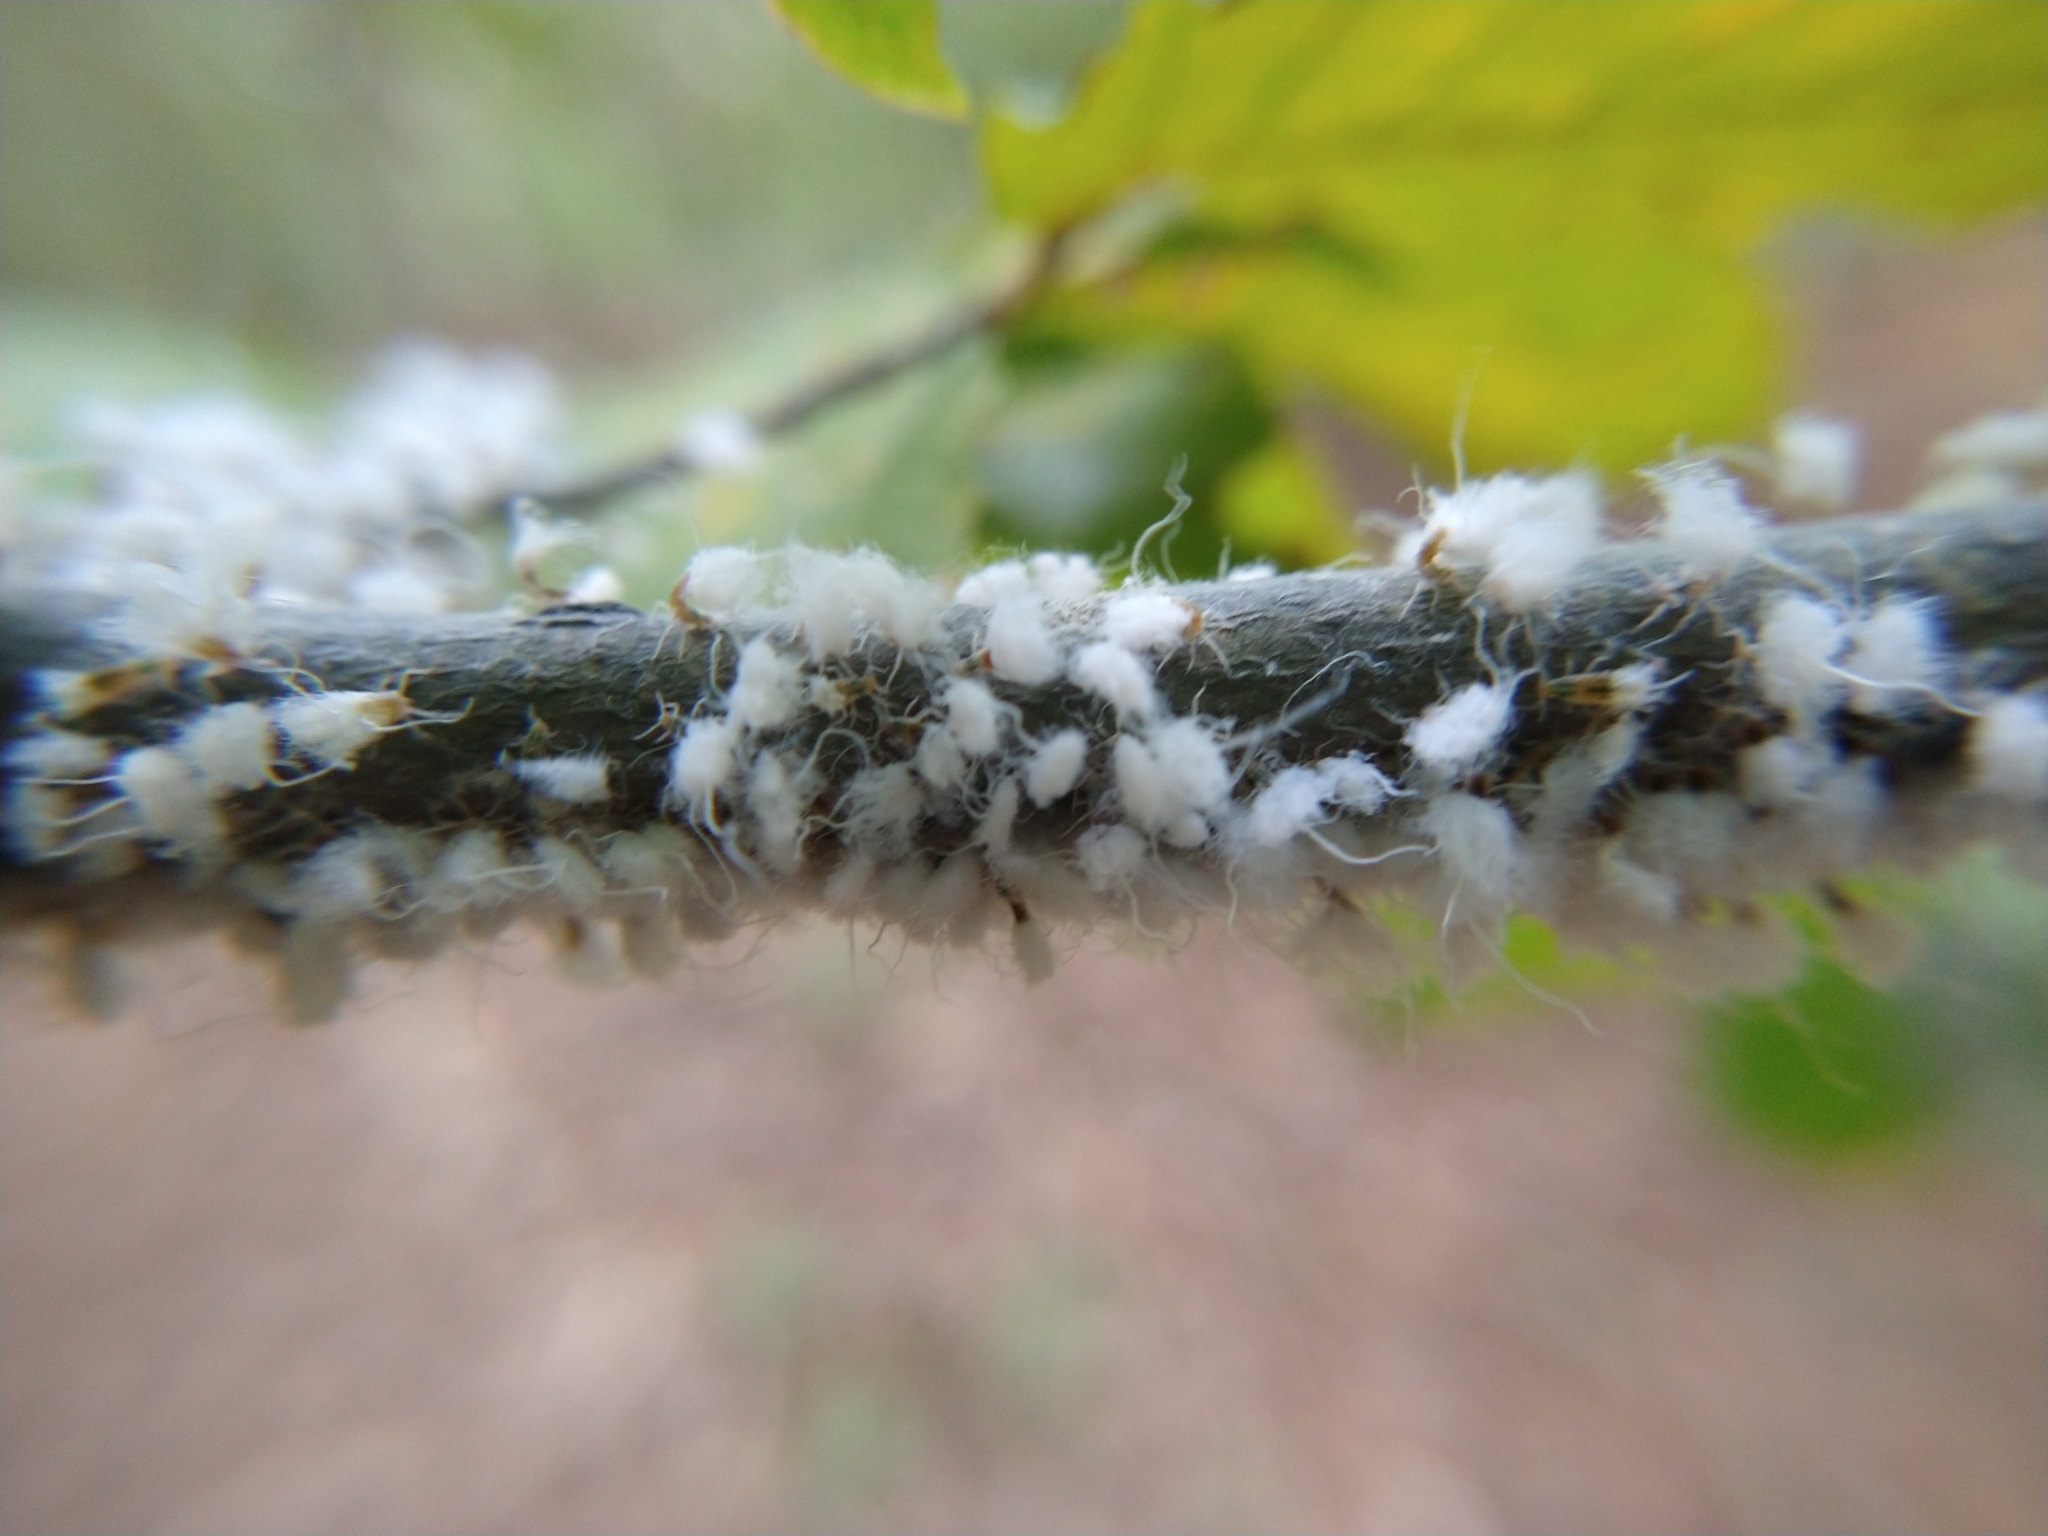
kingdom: Animalia
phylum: Arthropoda
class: Insecta
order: Hemiptera
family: Aphididae
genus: Grylloprociphilus
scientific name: Grylloprociphilus imbricator
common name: Beech blight aphid
